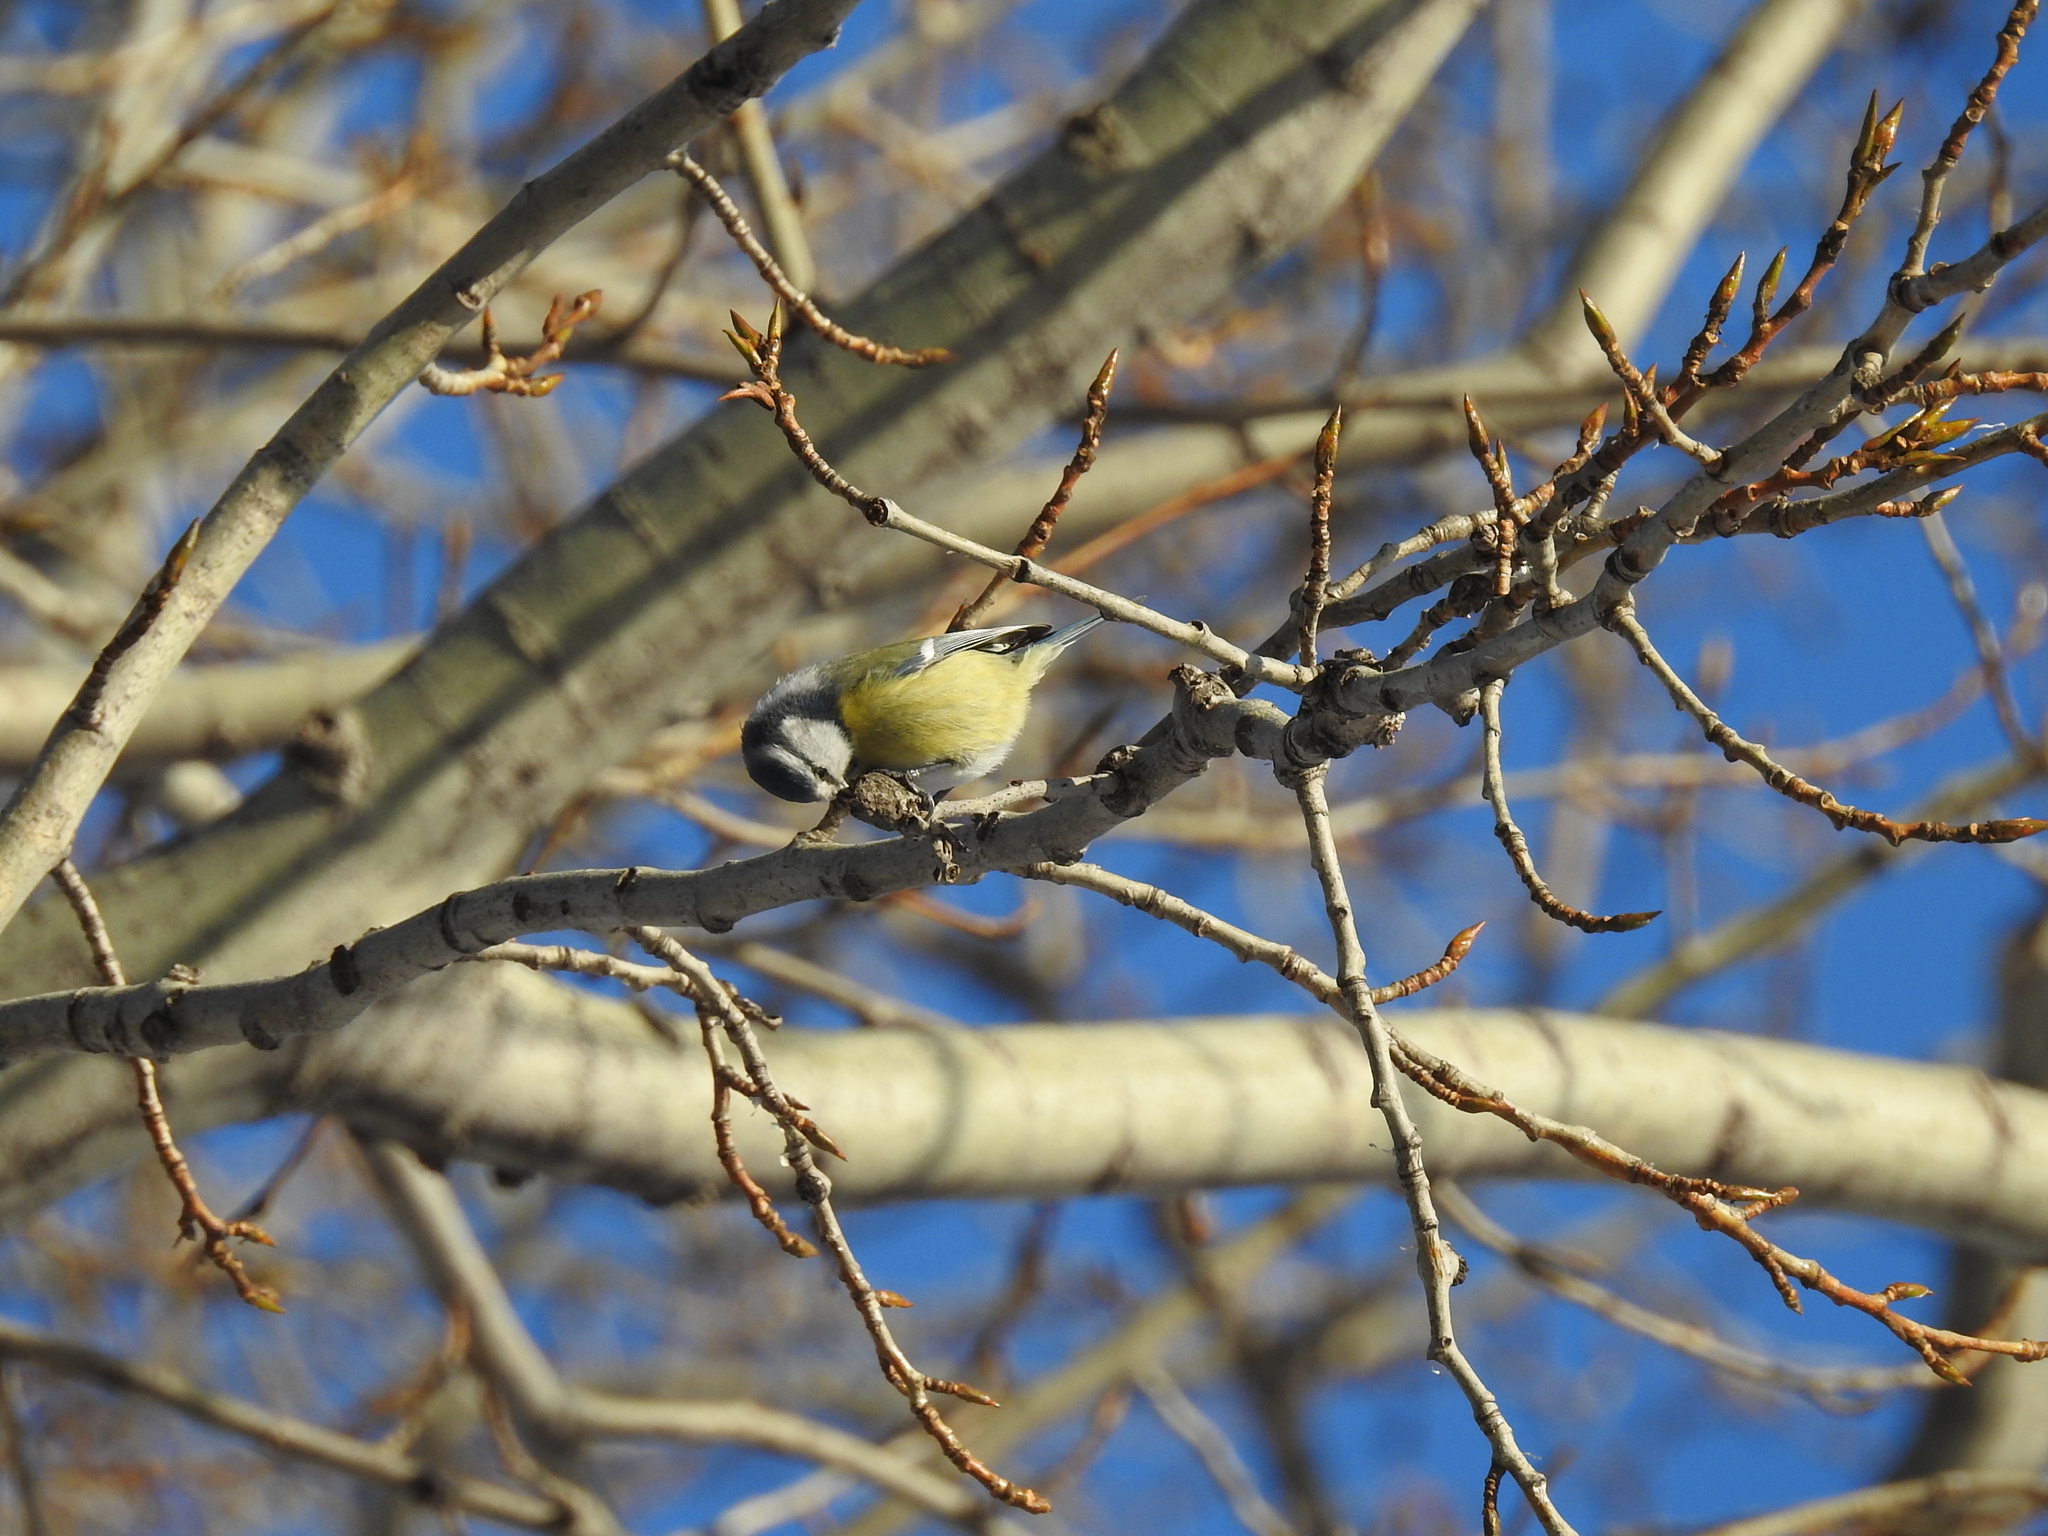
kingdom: Animalia
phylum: Chordata
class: Aves
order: Passeriformes
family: Paridae
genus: Cyanistes
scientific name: Cyanistes caeruleus
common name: Eurasian blue tit
